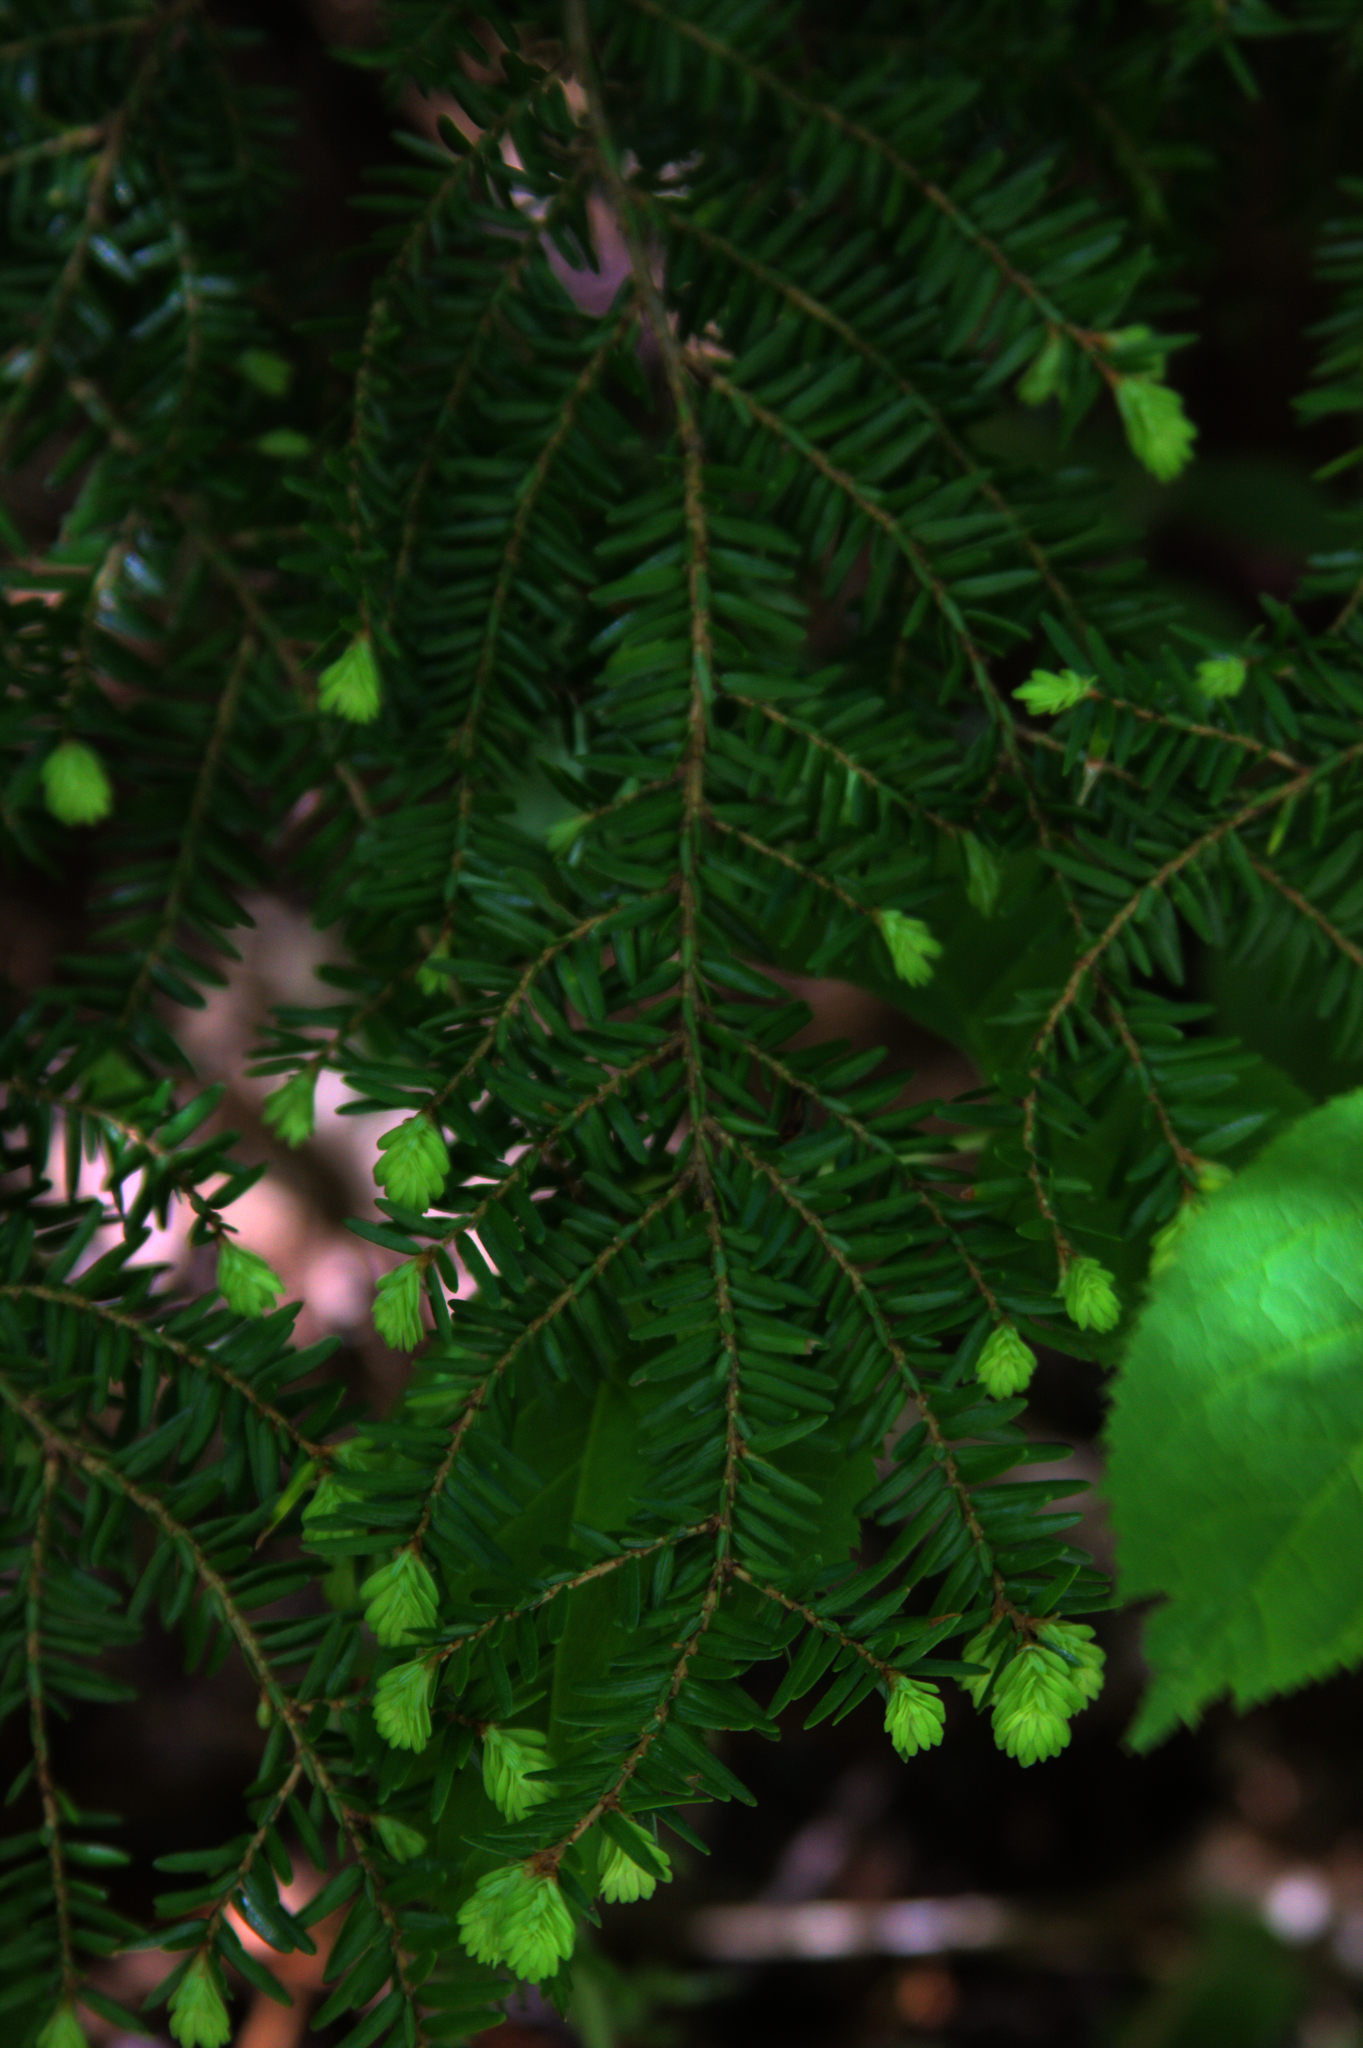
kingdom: Plantae
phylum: Tracheophyta
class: Pinopsida
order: Pinales
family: Pinaceae
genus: Tsuga
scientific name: Tsuga canadensis
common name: Eastern hemlock
